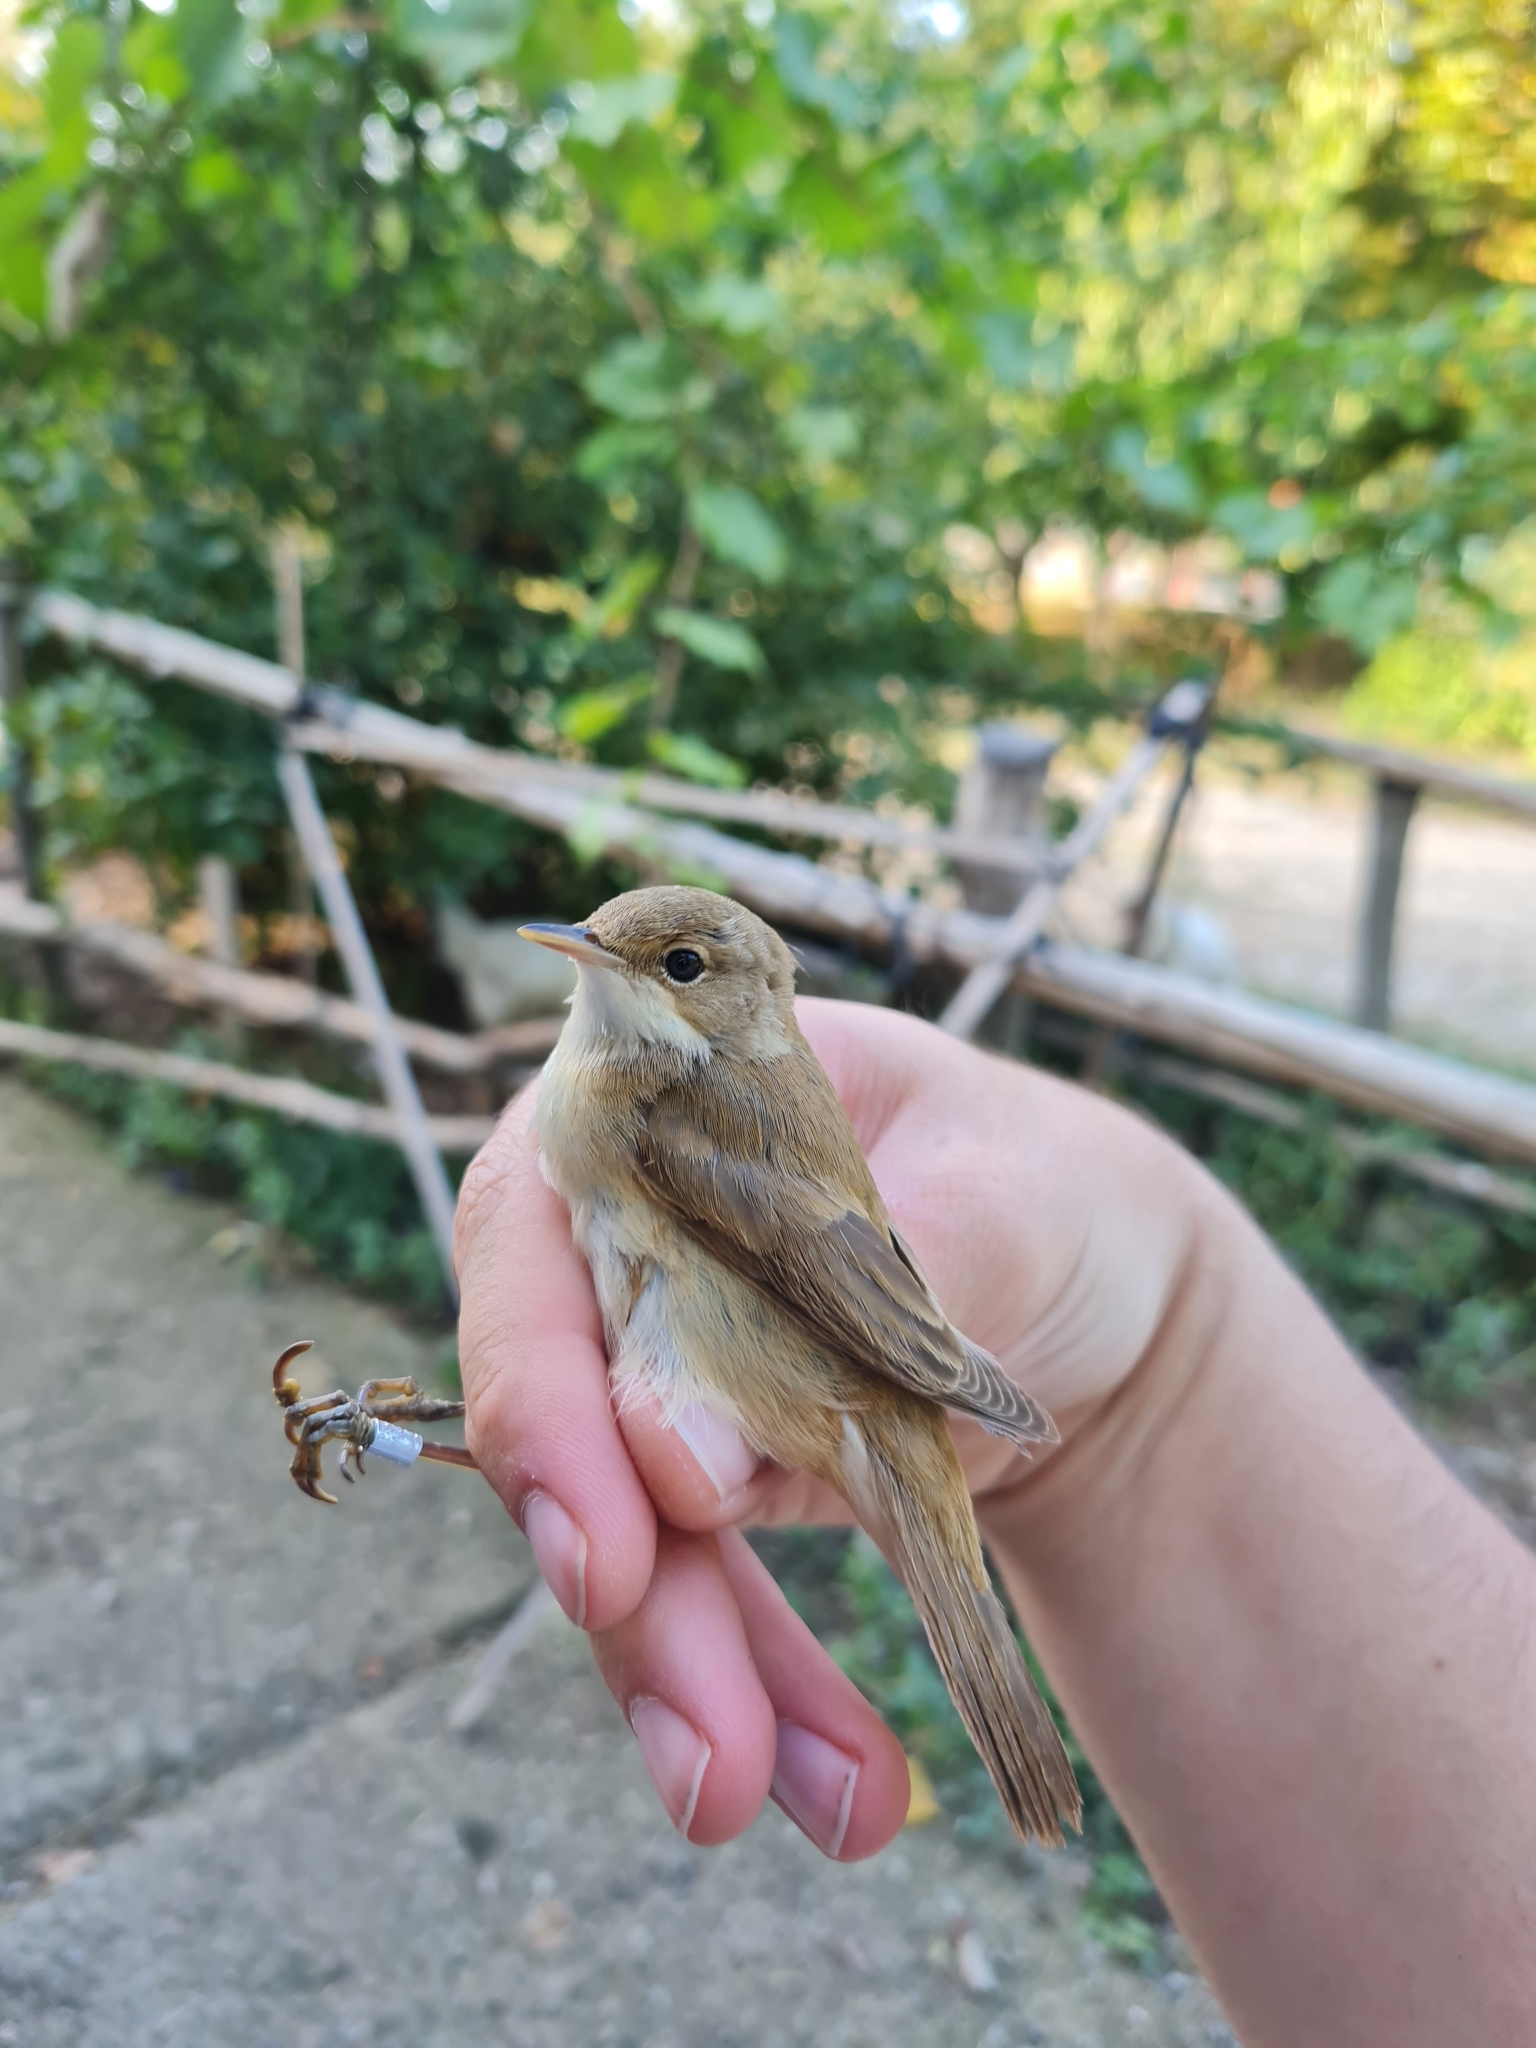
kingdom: Animalia
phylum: Chordata
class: Aves
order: Passeriformes
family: Acrocephalidae
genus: Acrocephalus
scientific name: Acrocephalus scirpaceus
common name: Eurasian reed warbler
